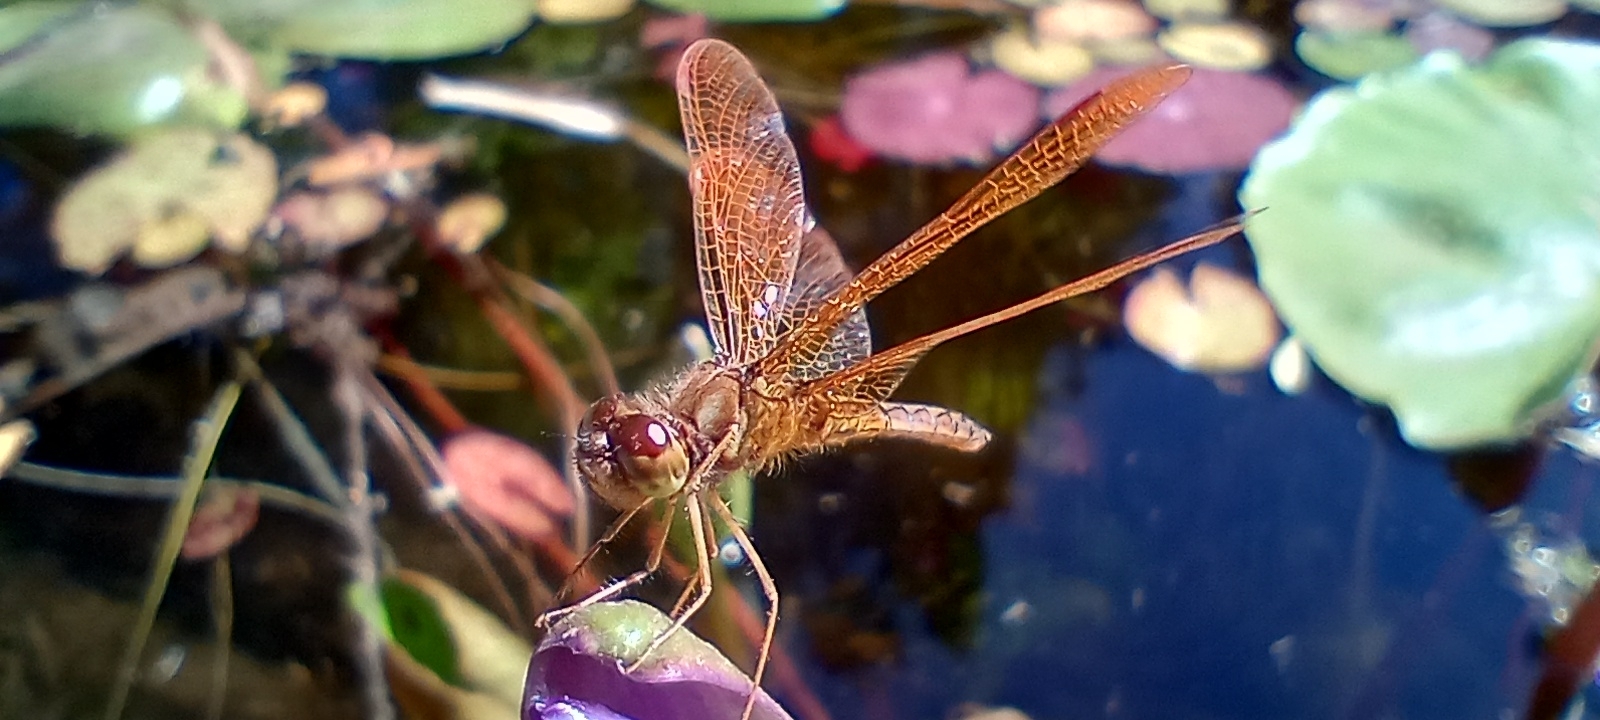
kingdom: Animalia
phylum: Arthropoda
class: Insecta
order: Odonata
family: Libellulidae
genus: Perithemis
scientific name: Perithemis tenera
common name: Eastern amberwing
